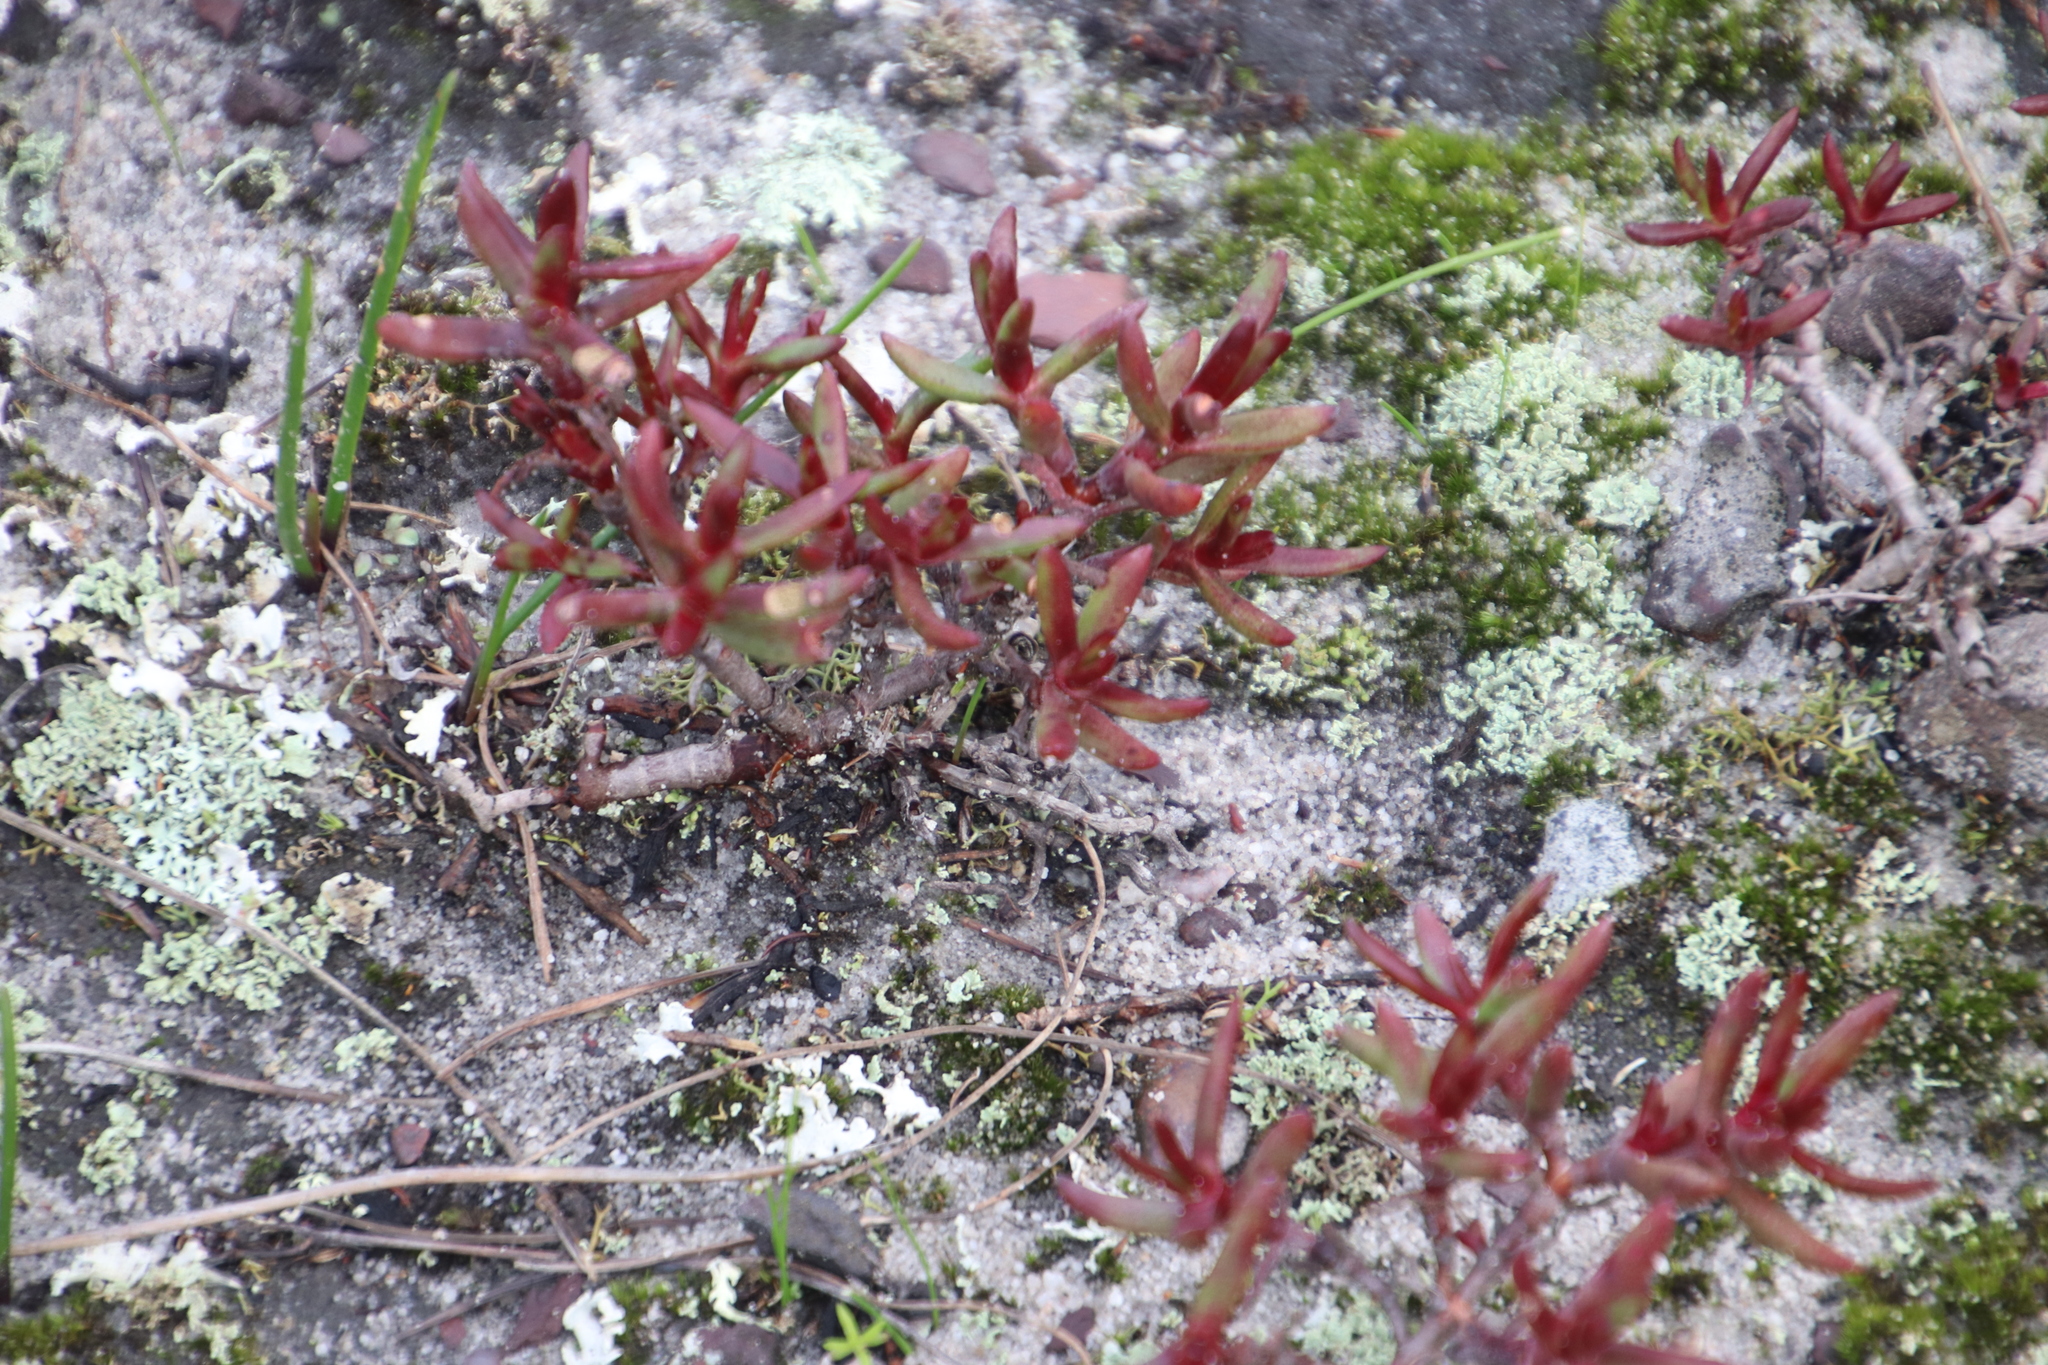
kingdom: Plantae
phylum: Tracheophyta
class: Magnoliopsida
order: Saxifragales
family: Crassulaceae
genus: Crassula
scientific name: Crassula obtusa
